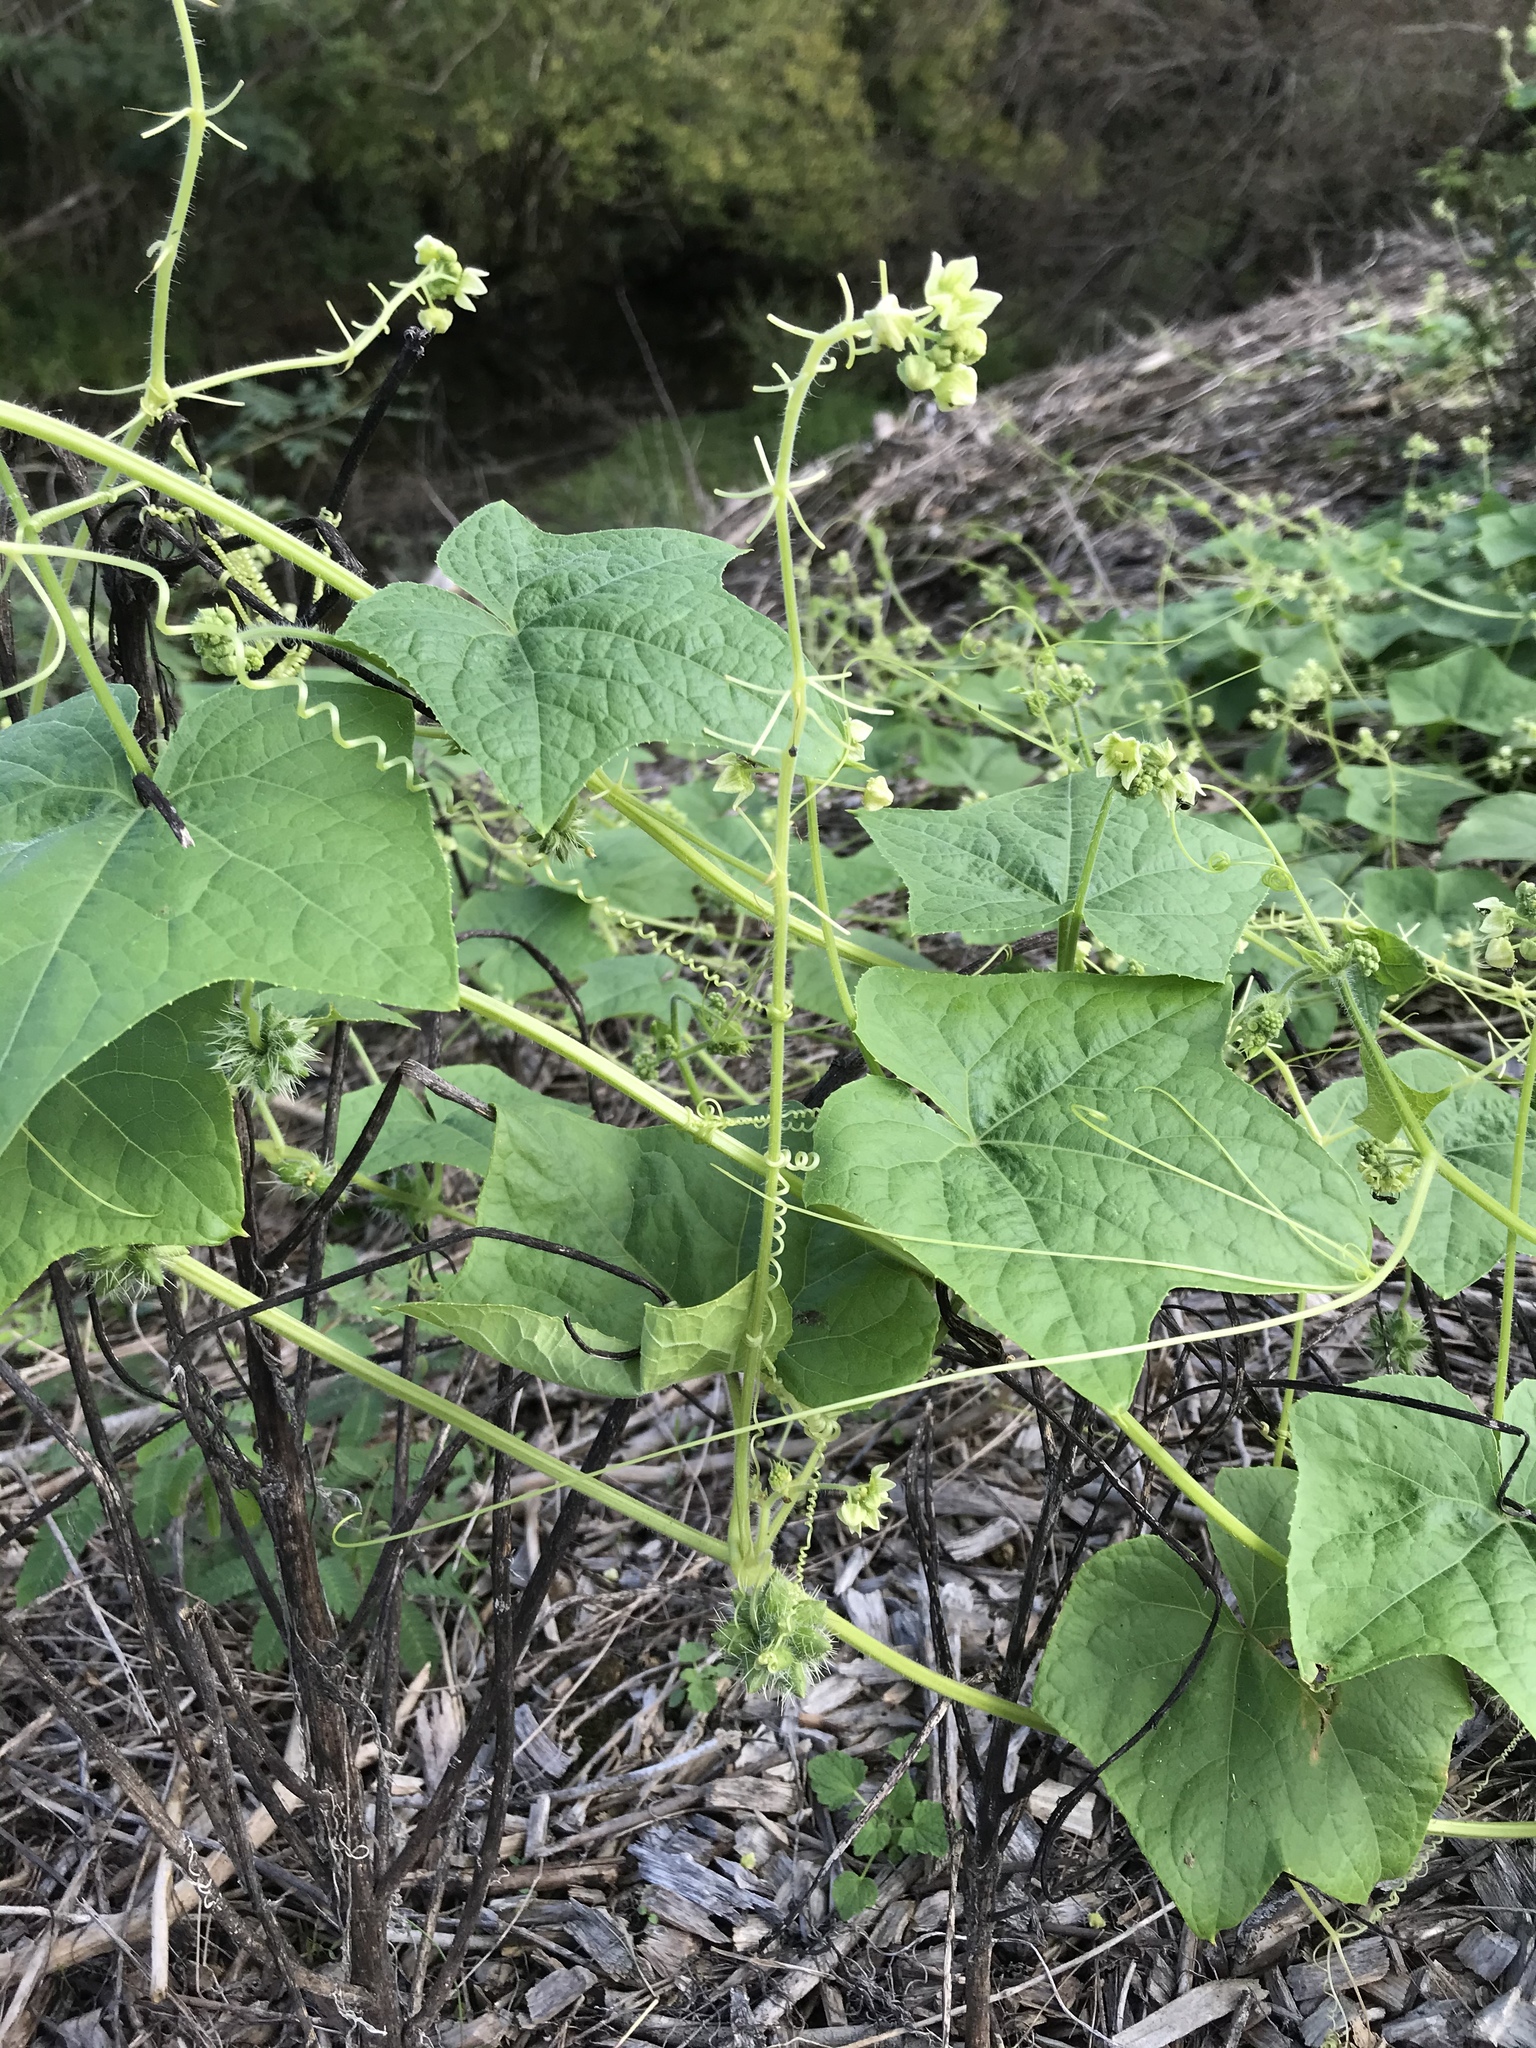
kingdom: Plantae
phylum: Tracheophyta
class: Magnoliopsida
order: Cucurbitales
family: Cucurbitaceae
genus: Sicyos
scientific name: Sicyos angulatus
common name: Angled burr cucumber
